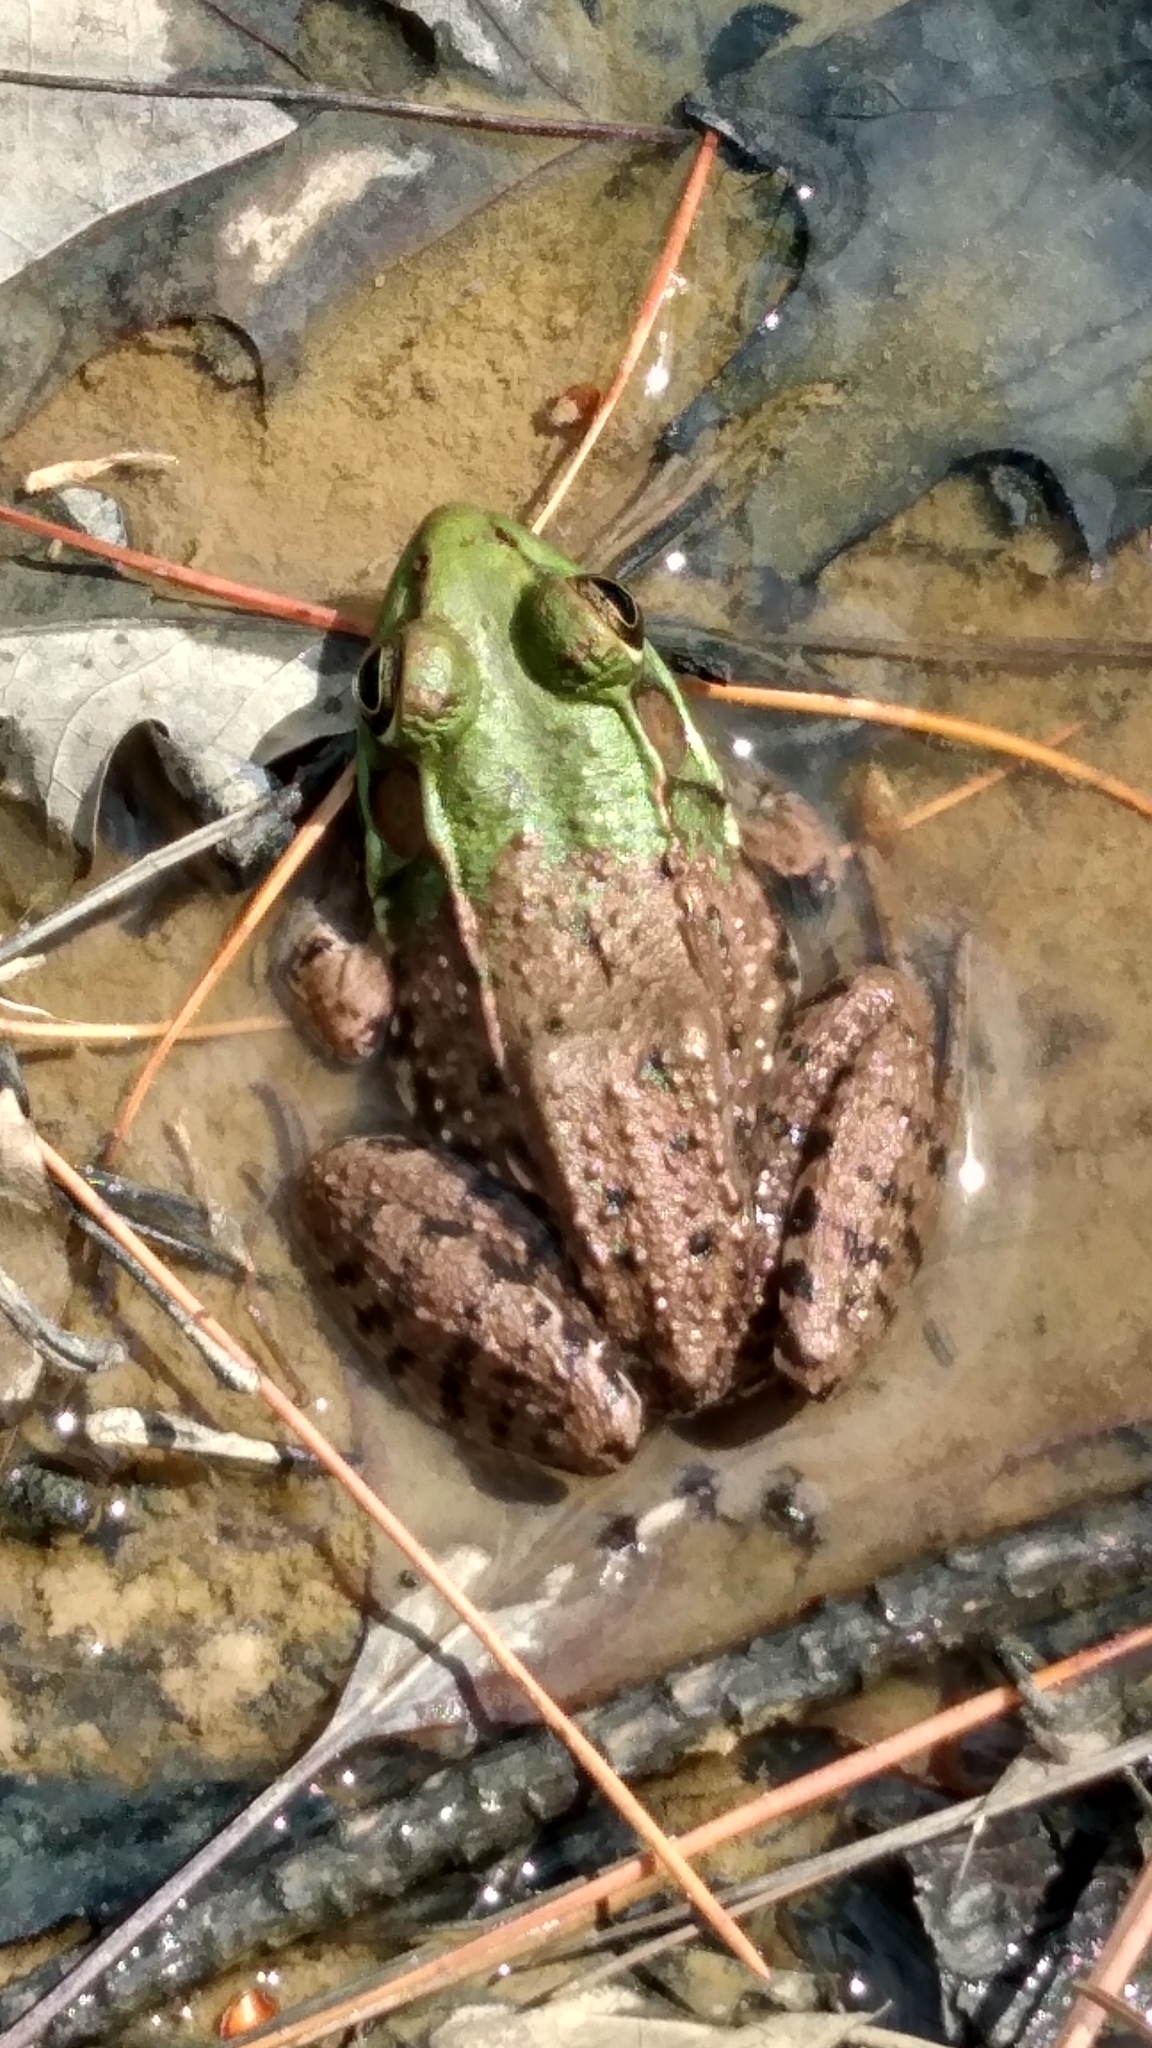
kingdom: Animalia
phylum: Chordata
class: Amphibia
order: Anura
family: Ranidae
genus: Lithobates
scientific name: Lithobates clamitans
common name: Green frog
